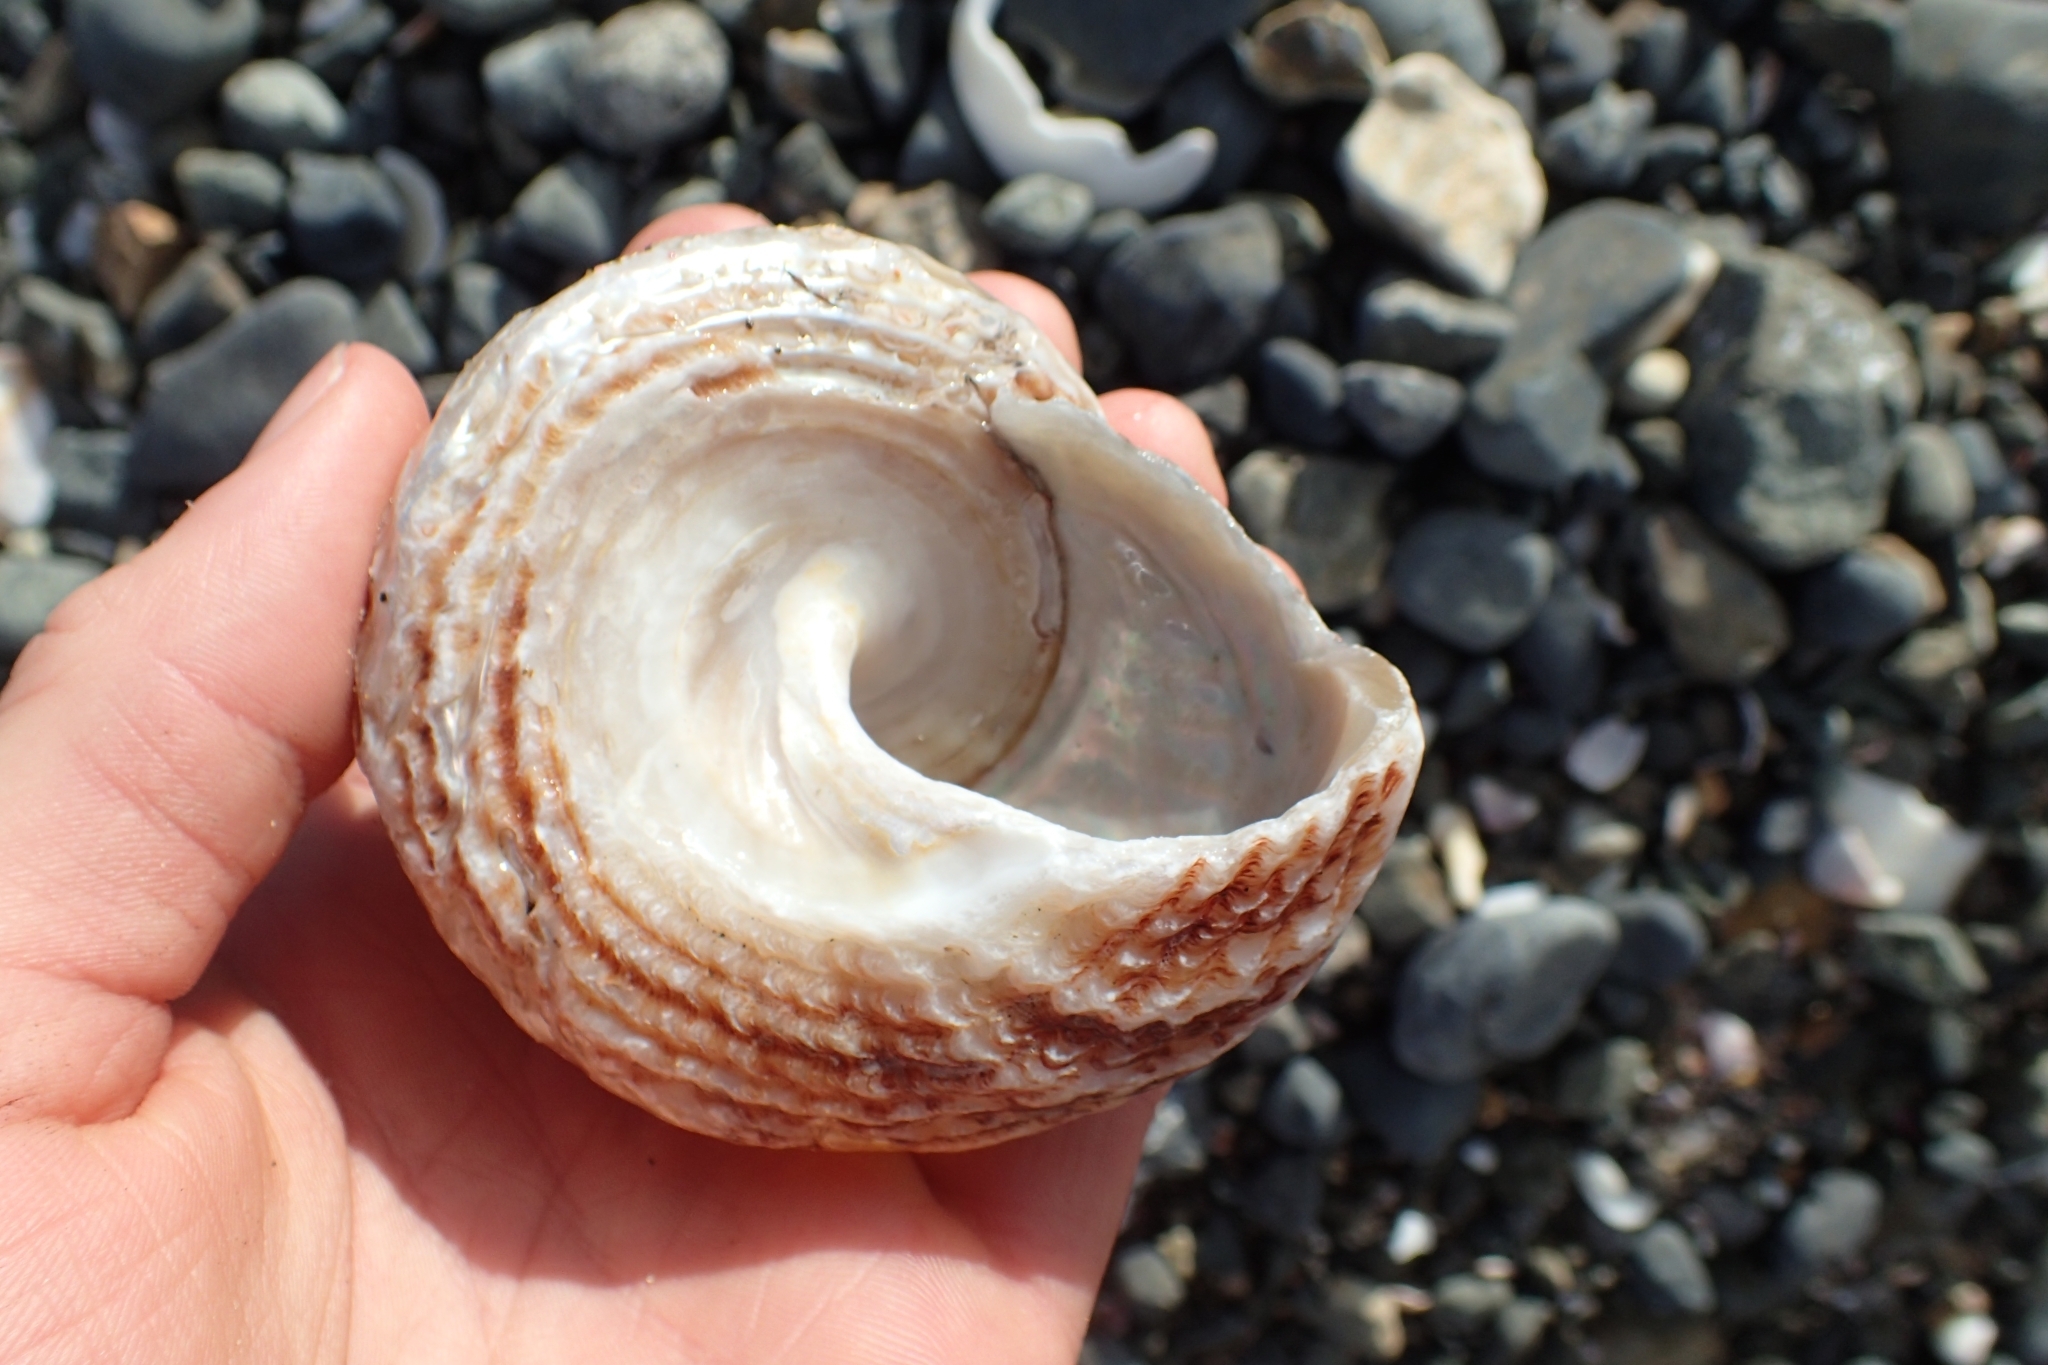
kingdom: Animalia
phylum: Mollusca
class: Gastropoda
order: Trochida
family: Turbinidae
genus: Cookia
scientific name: Cookia sulcata
